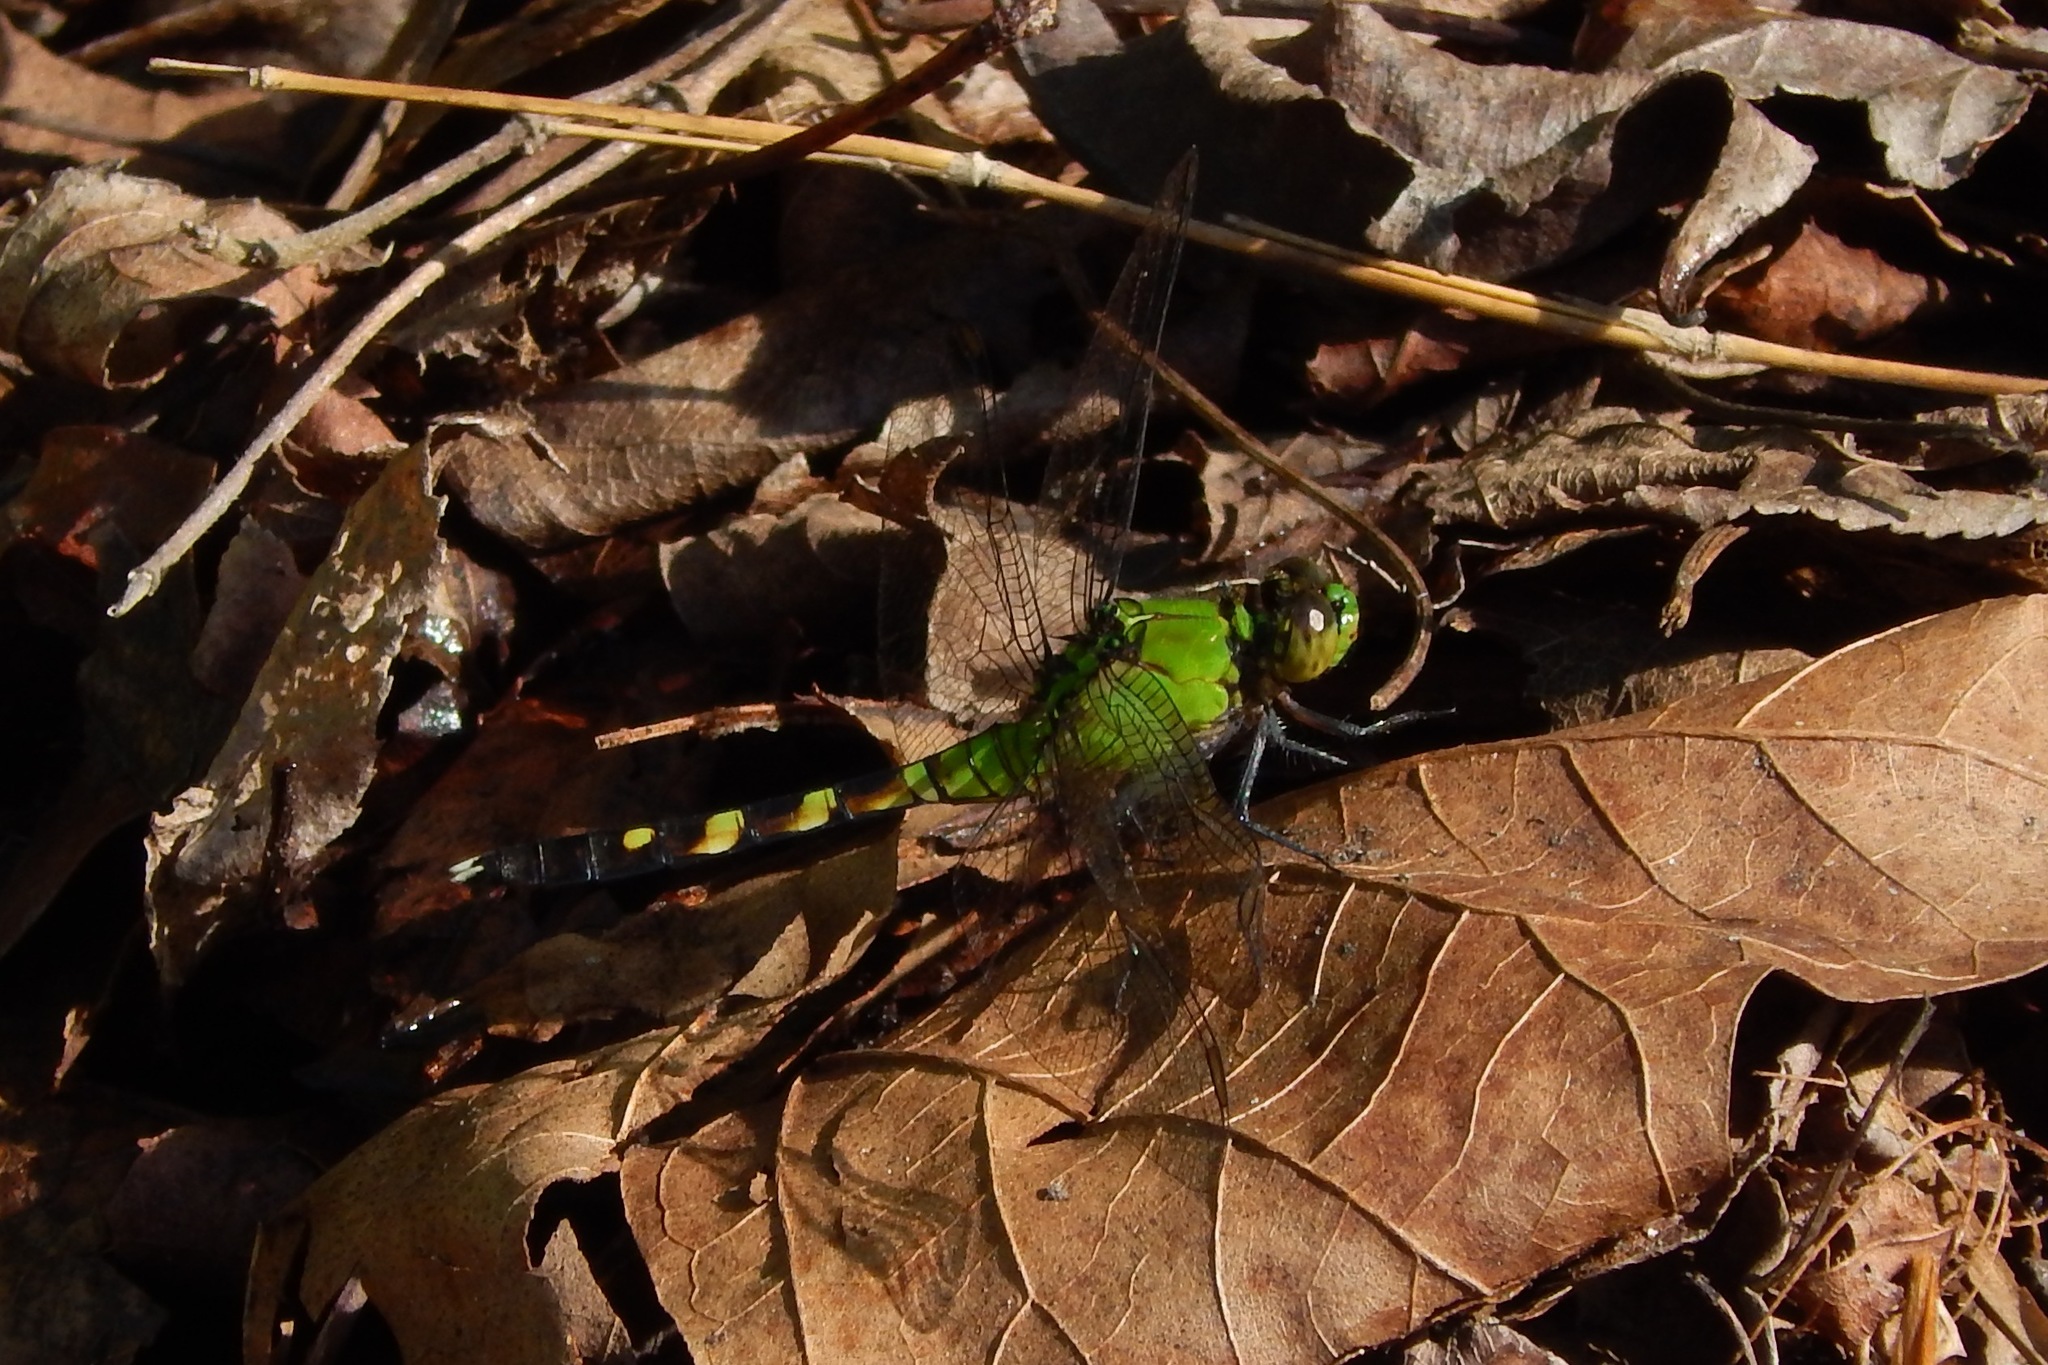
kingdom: Animalia
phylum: Arthropoda
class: Insecta
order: Odonata
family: Libellulidae
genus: Erythemis
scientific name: Erythemis simplicicollis
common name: Eastern pondhawk
